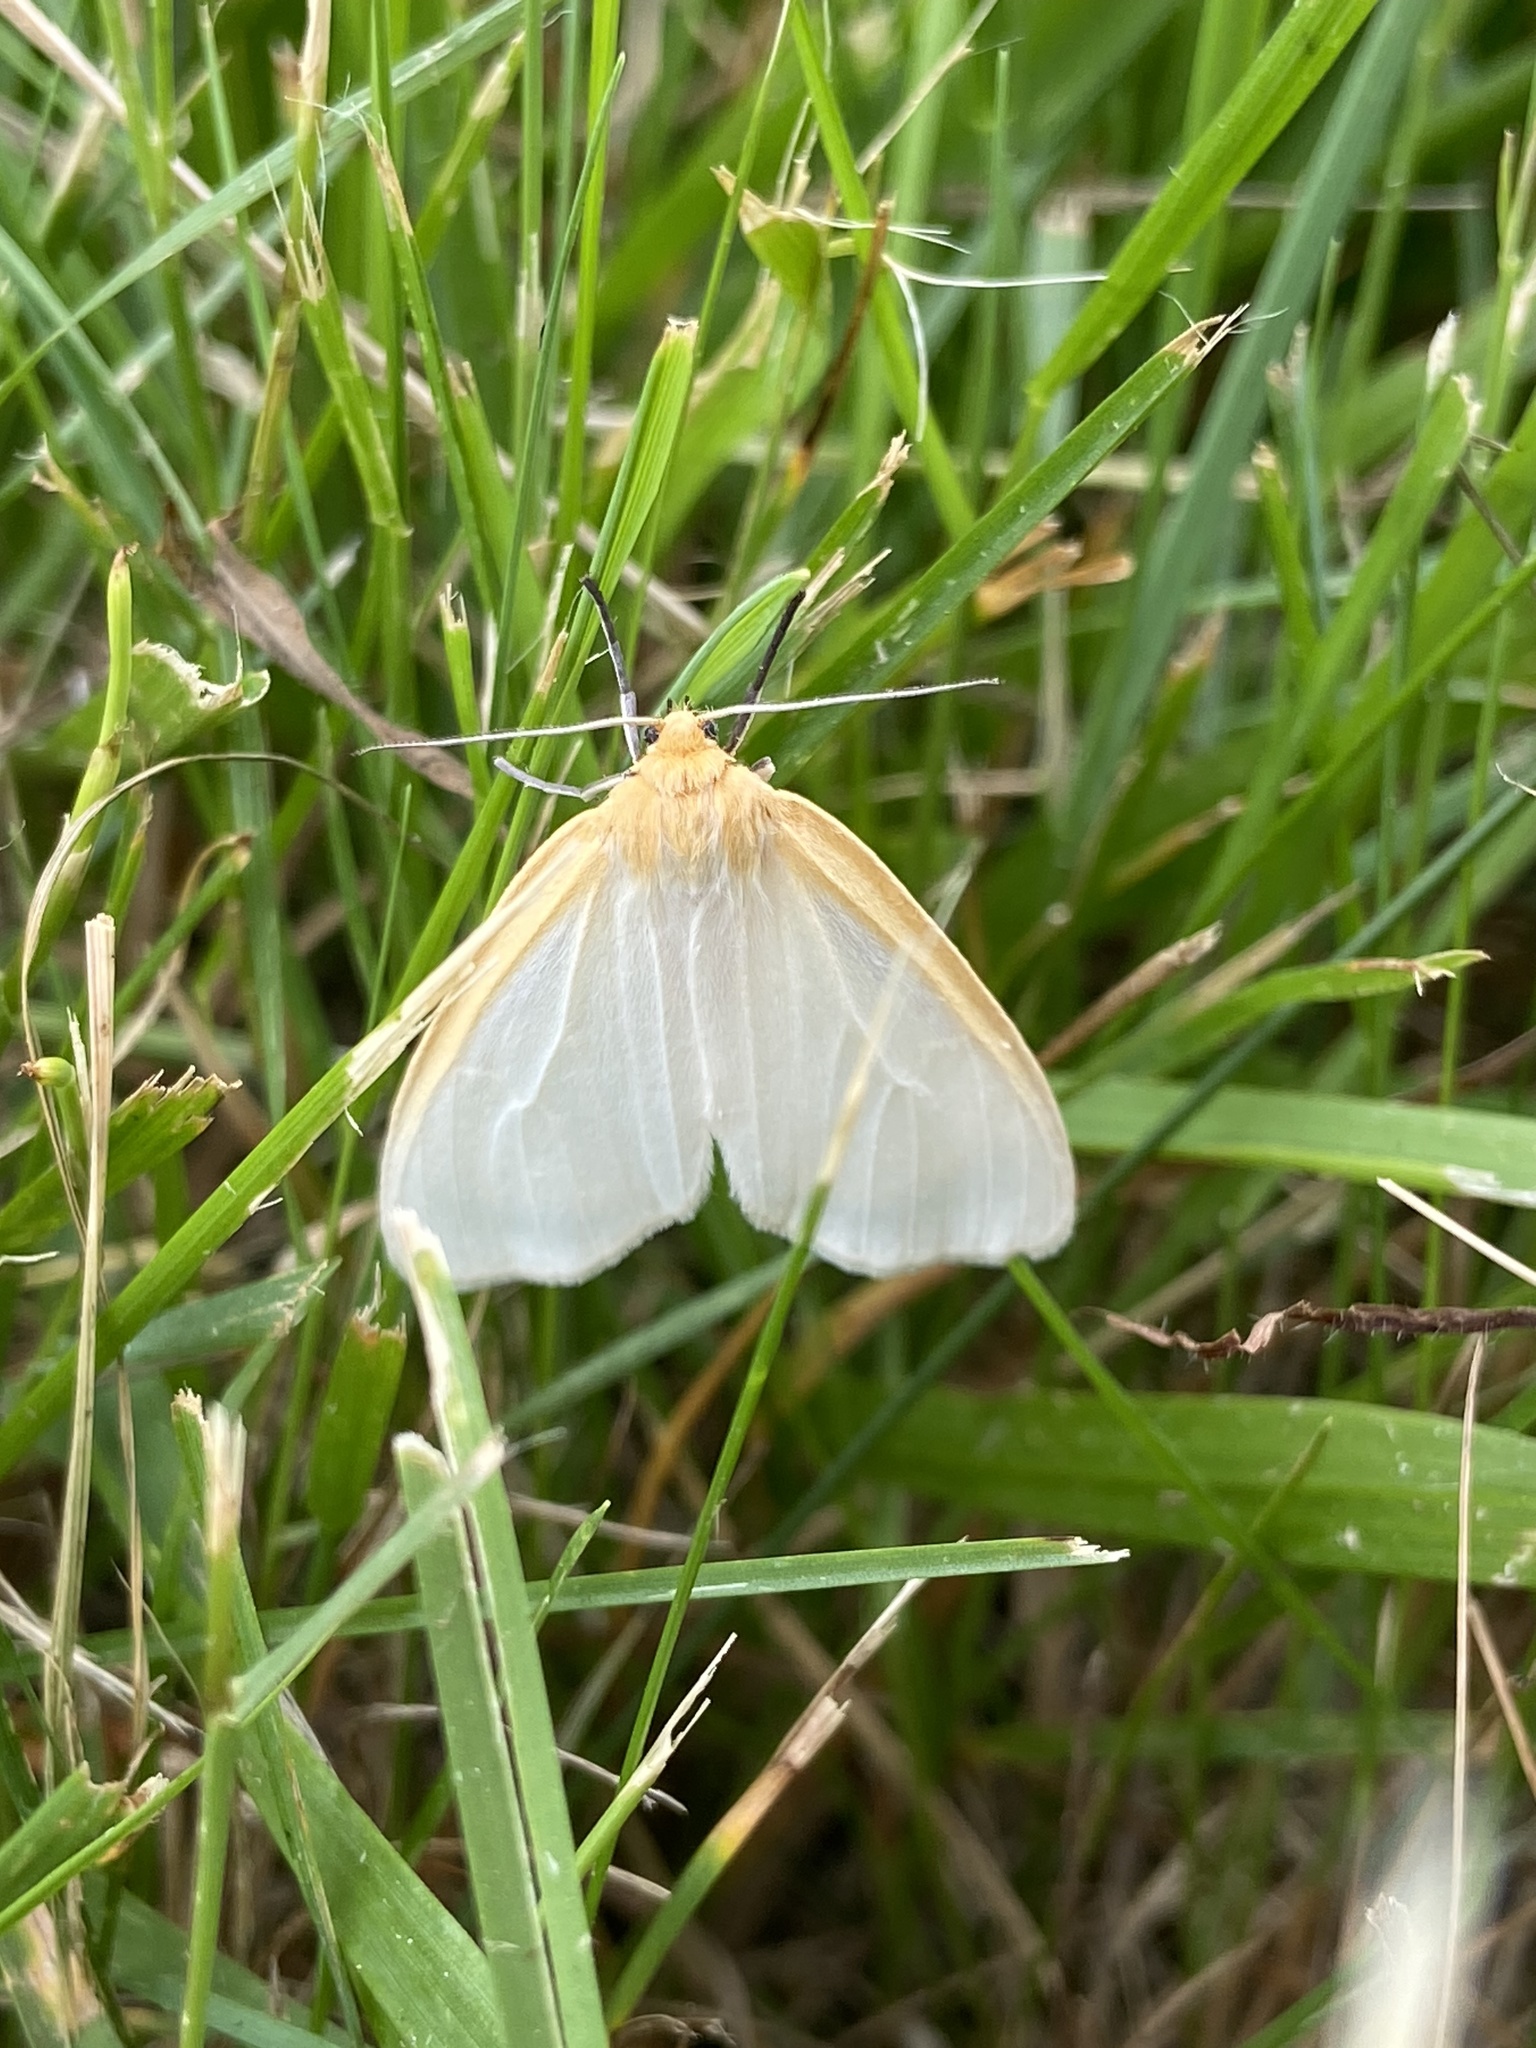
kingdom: Animalia
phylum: Arthropoda
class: Insecta
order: Lepidoptera
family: Erebidae
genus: Cycnia
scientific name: Cycnia tenera
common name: Delicate cycnia moth
